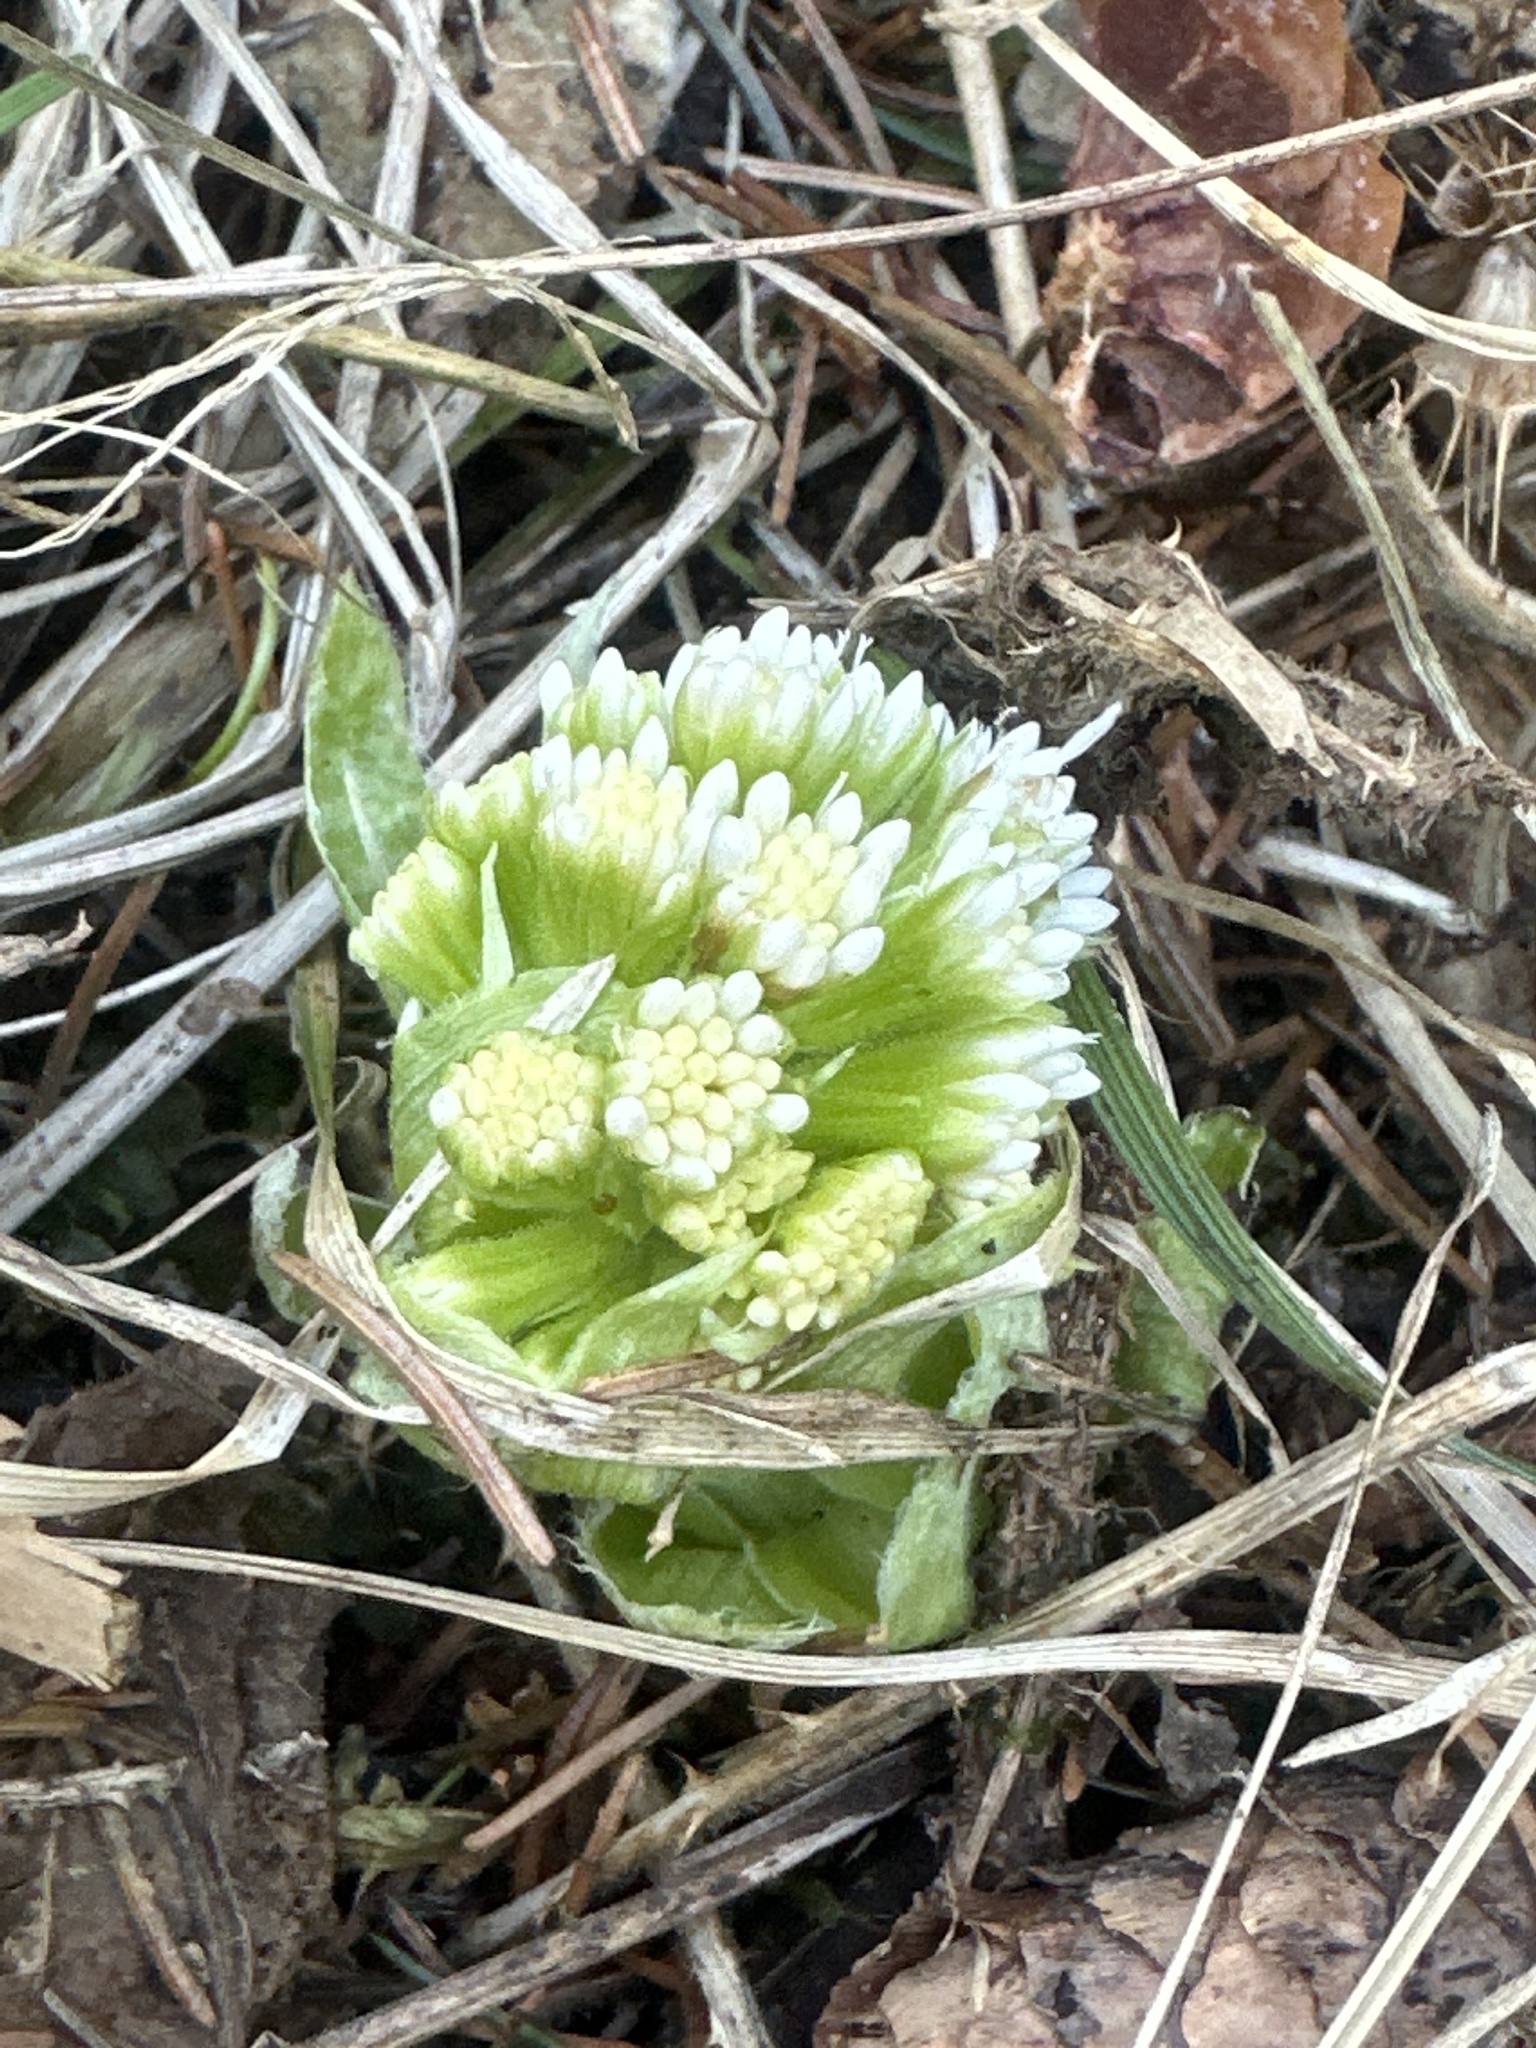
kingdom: Plantae
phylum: Tracheophyta
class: Magnoliopsida
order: Asterales
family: Asteraceae
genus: Petasites
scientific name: Petasites albus
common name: White butterbur
